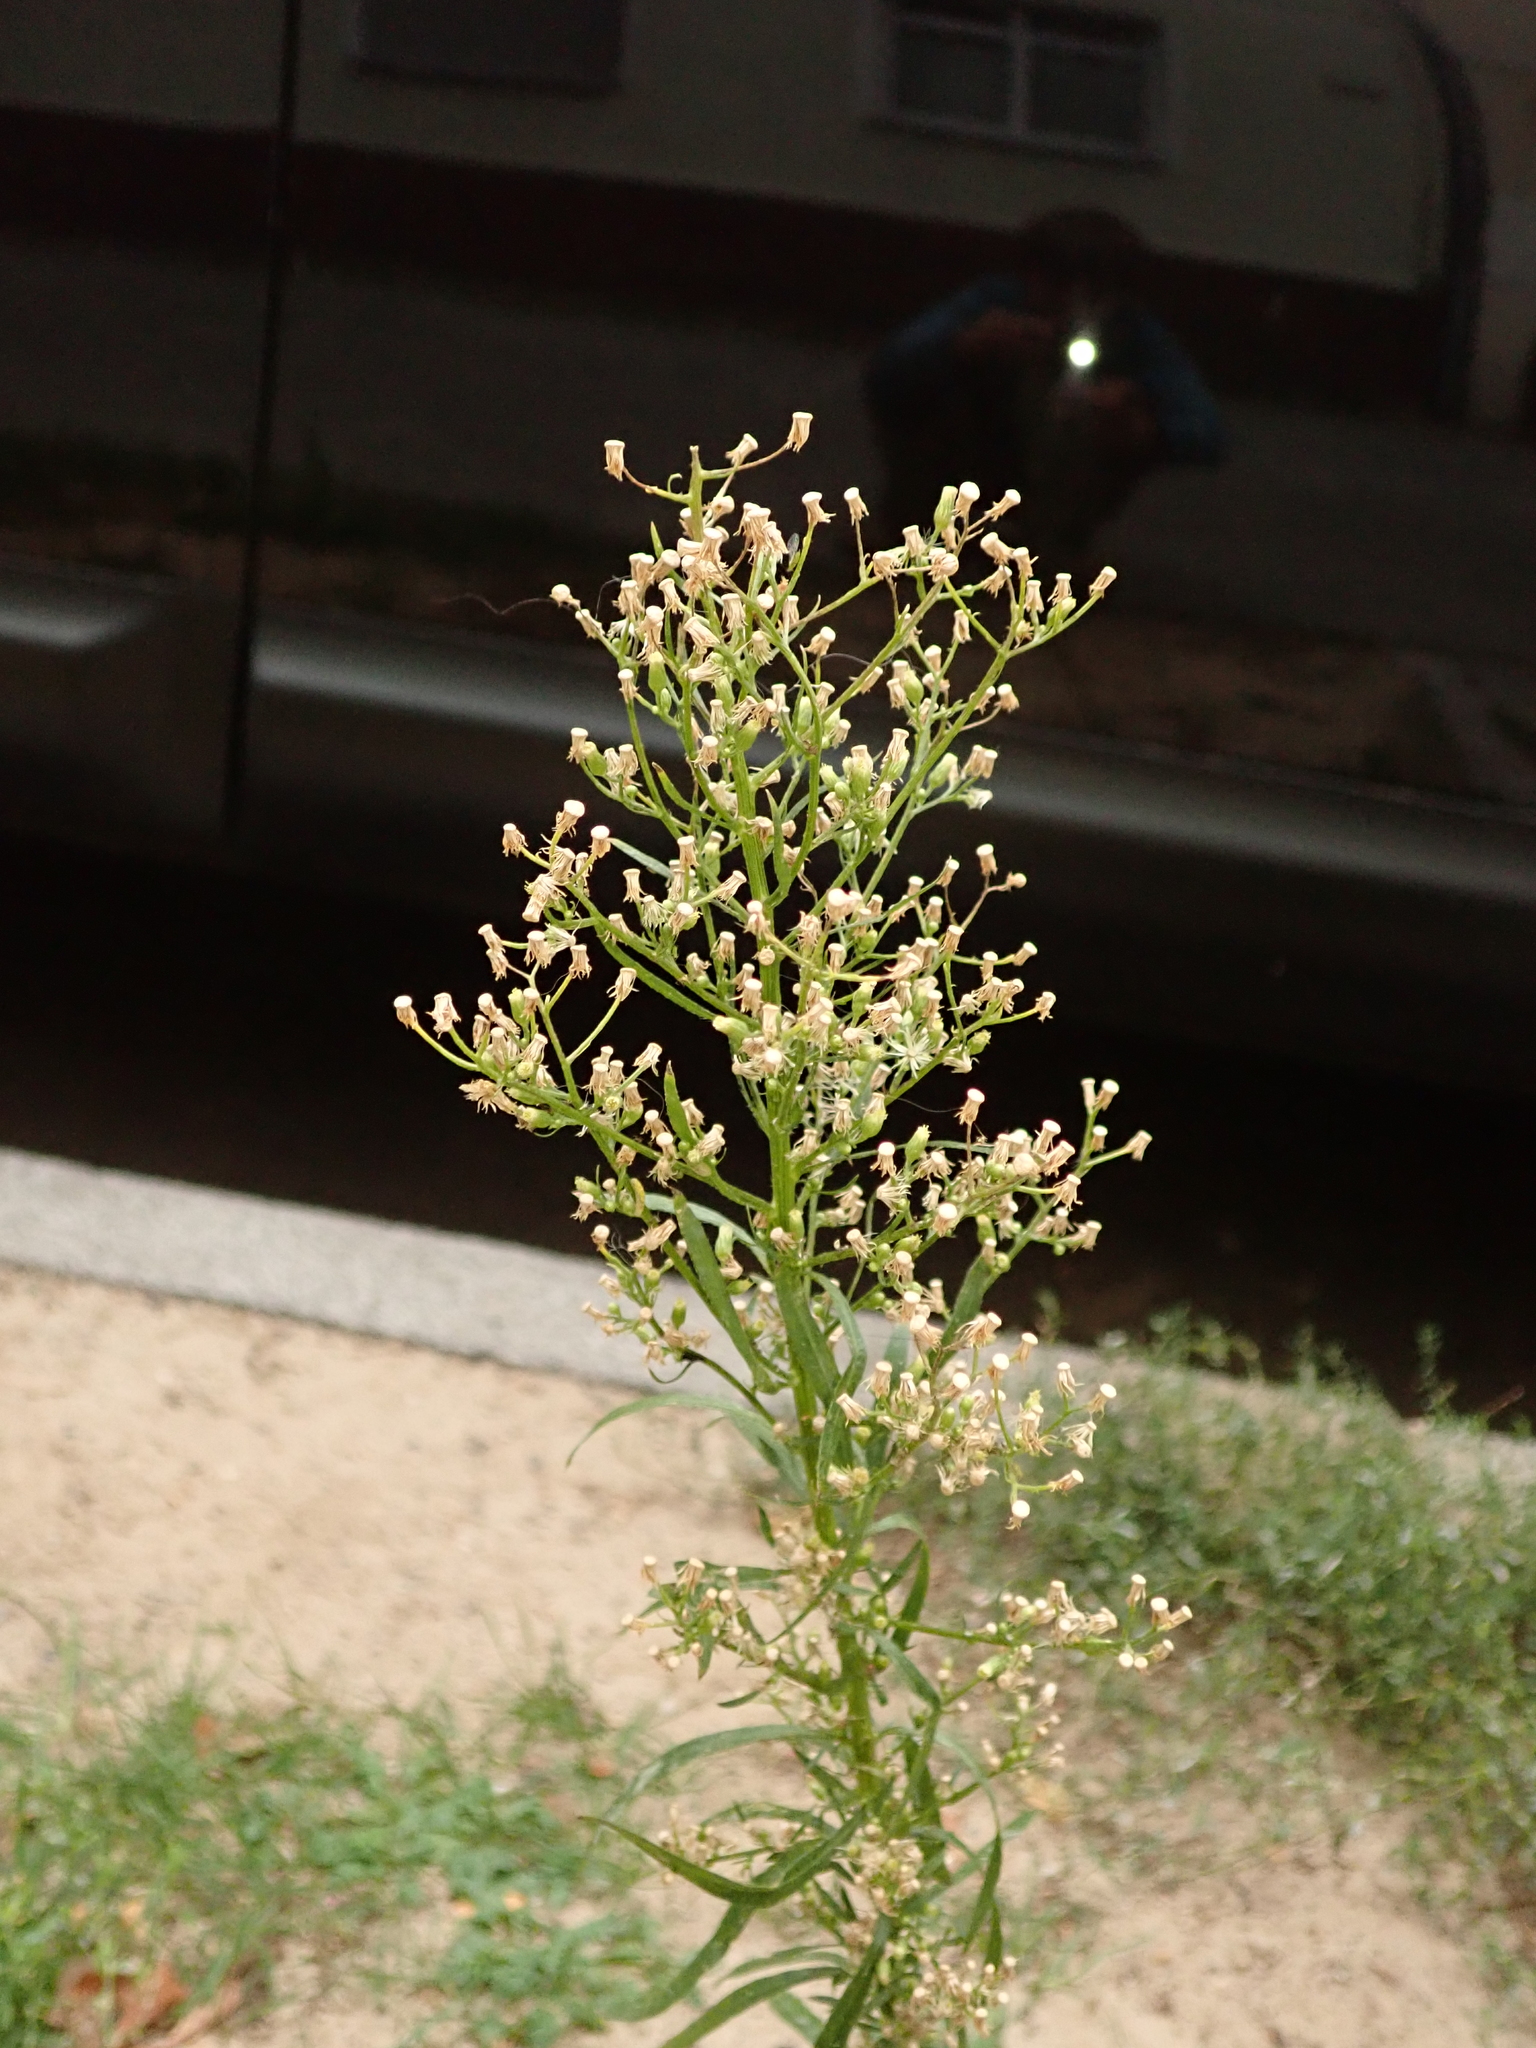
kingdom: Plantae
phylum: Tracheophyta
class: Magnoliopsida
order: Asterales
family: Asteraceae
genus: Erigeron
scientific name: Erigeron canadensis
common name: Canadian fleabane
